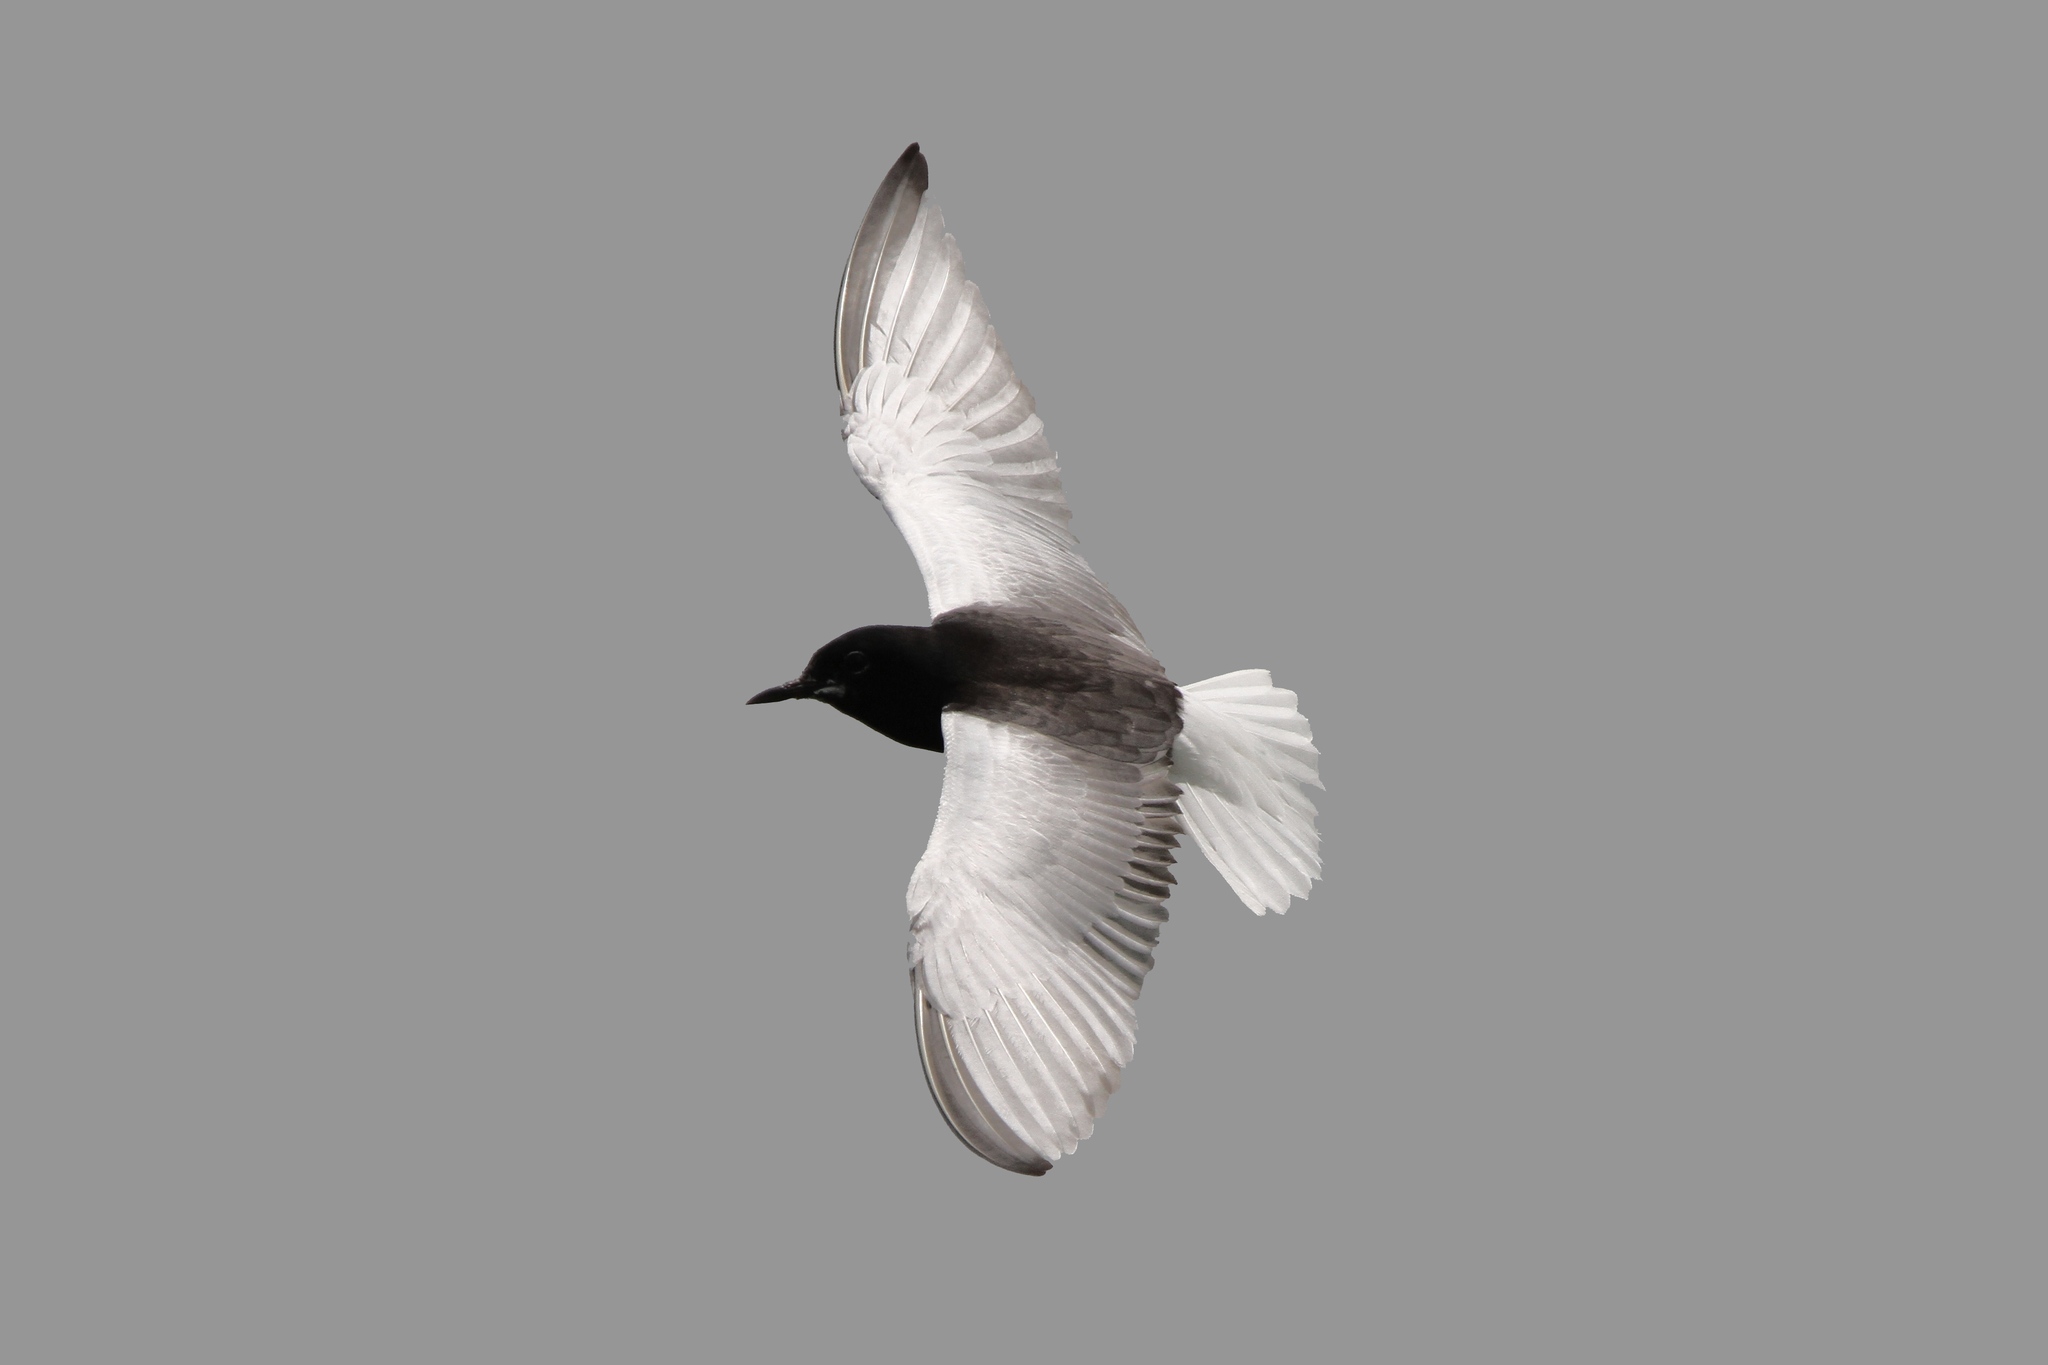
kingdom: Animalia
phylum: Chordata
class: Aves
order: Charadriiformes
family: Laridae
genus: Chlidonias
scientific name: Chlidonias leucopterus
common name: White-winged tern
